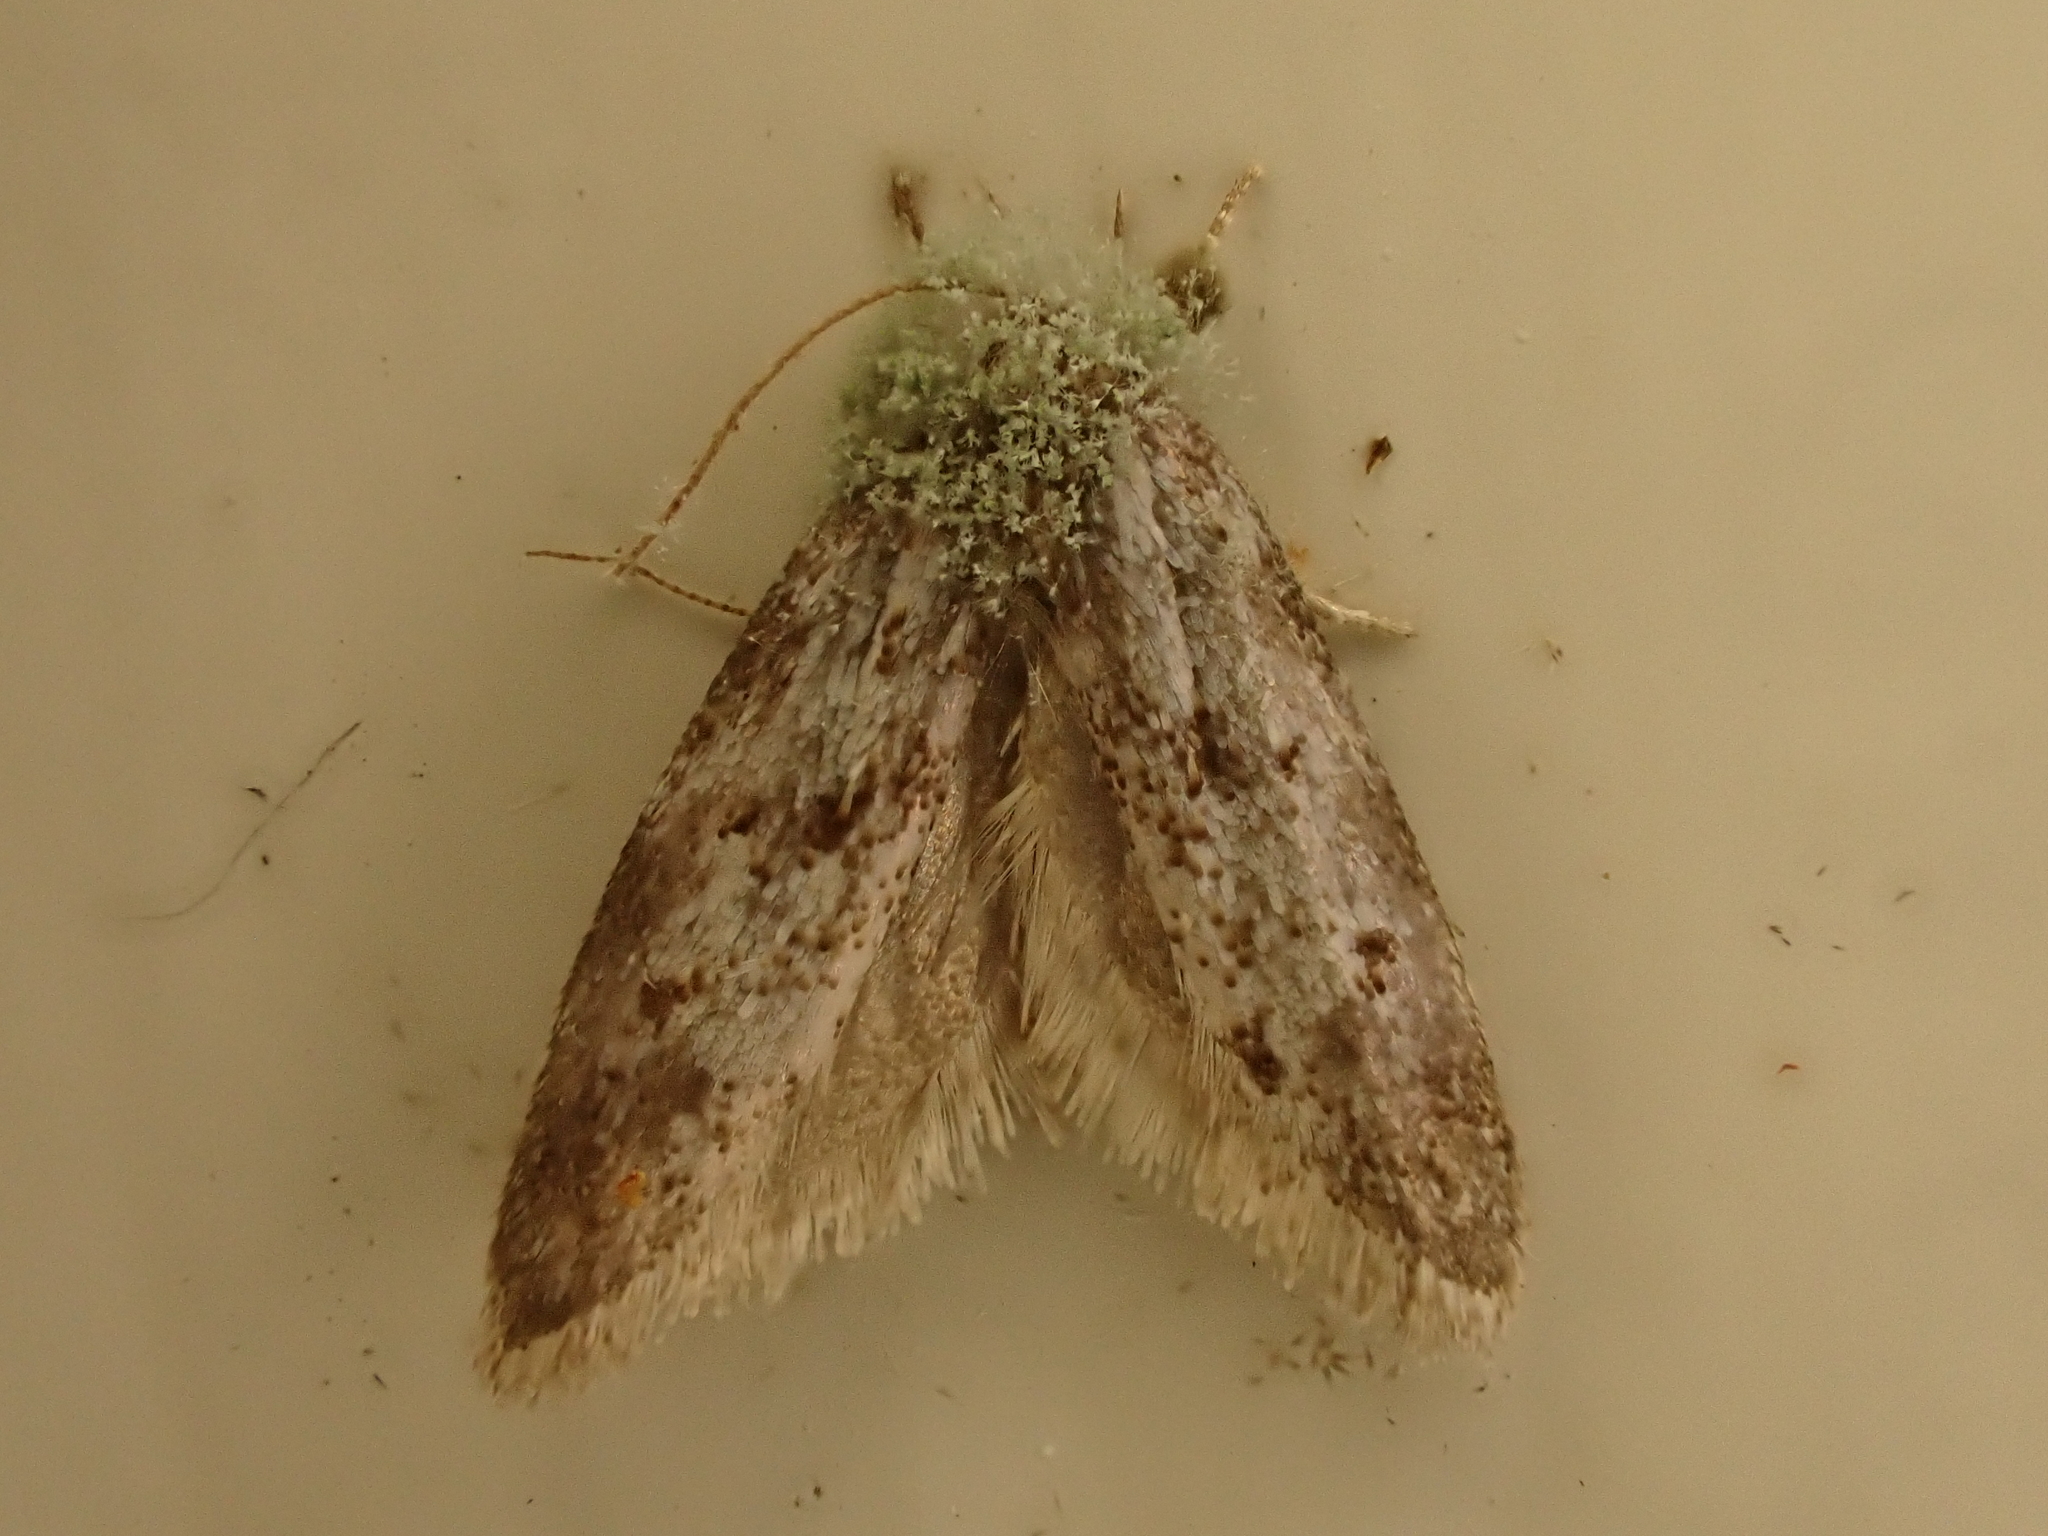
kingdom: Animalia
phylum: Arthropoda
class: Insecta
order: Lepidoptera
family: Oecophoridae
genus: Tingena
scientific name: Tingena clarkei
